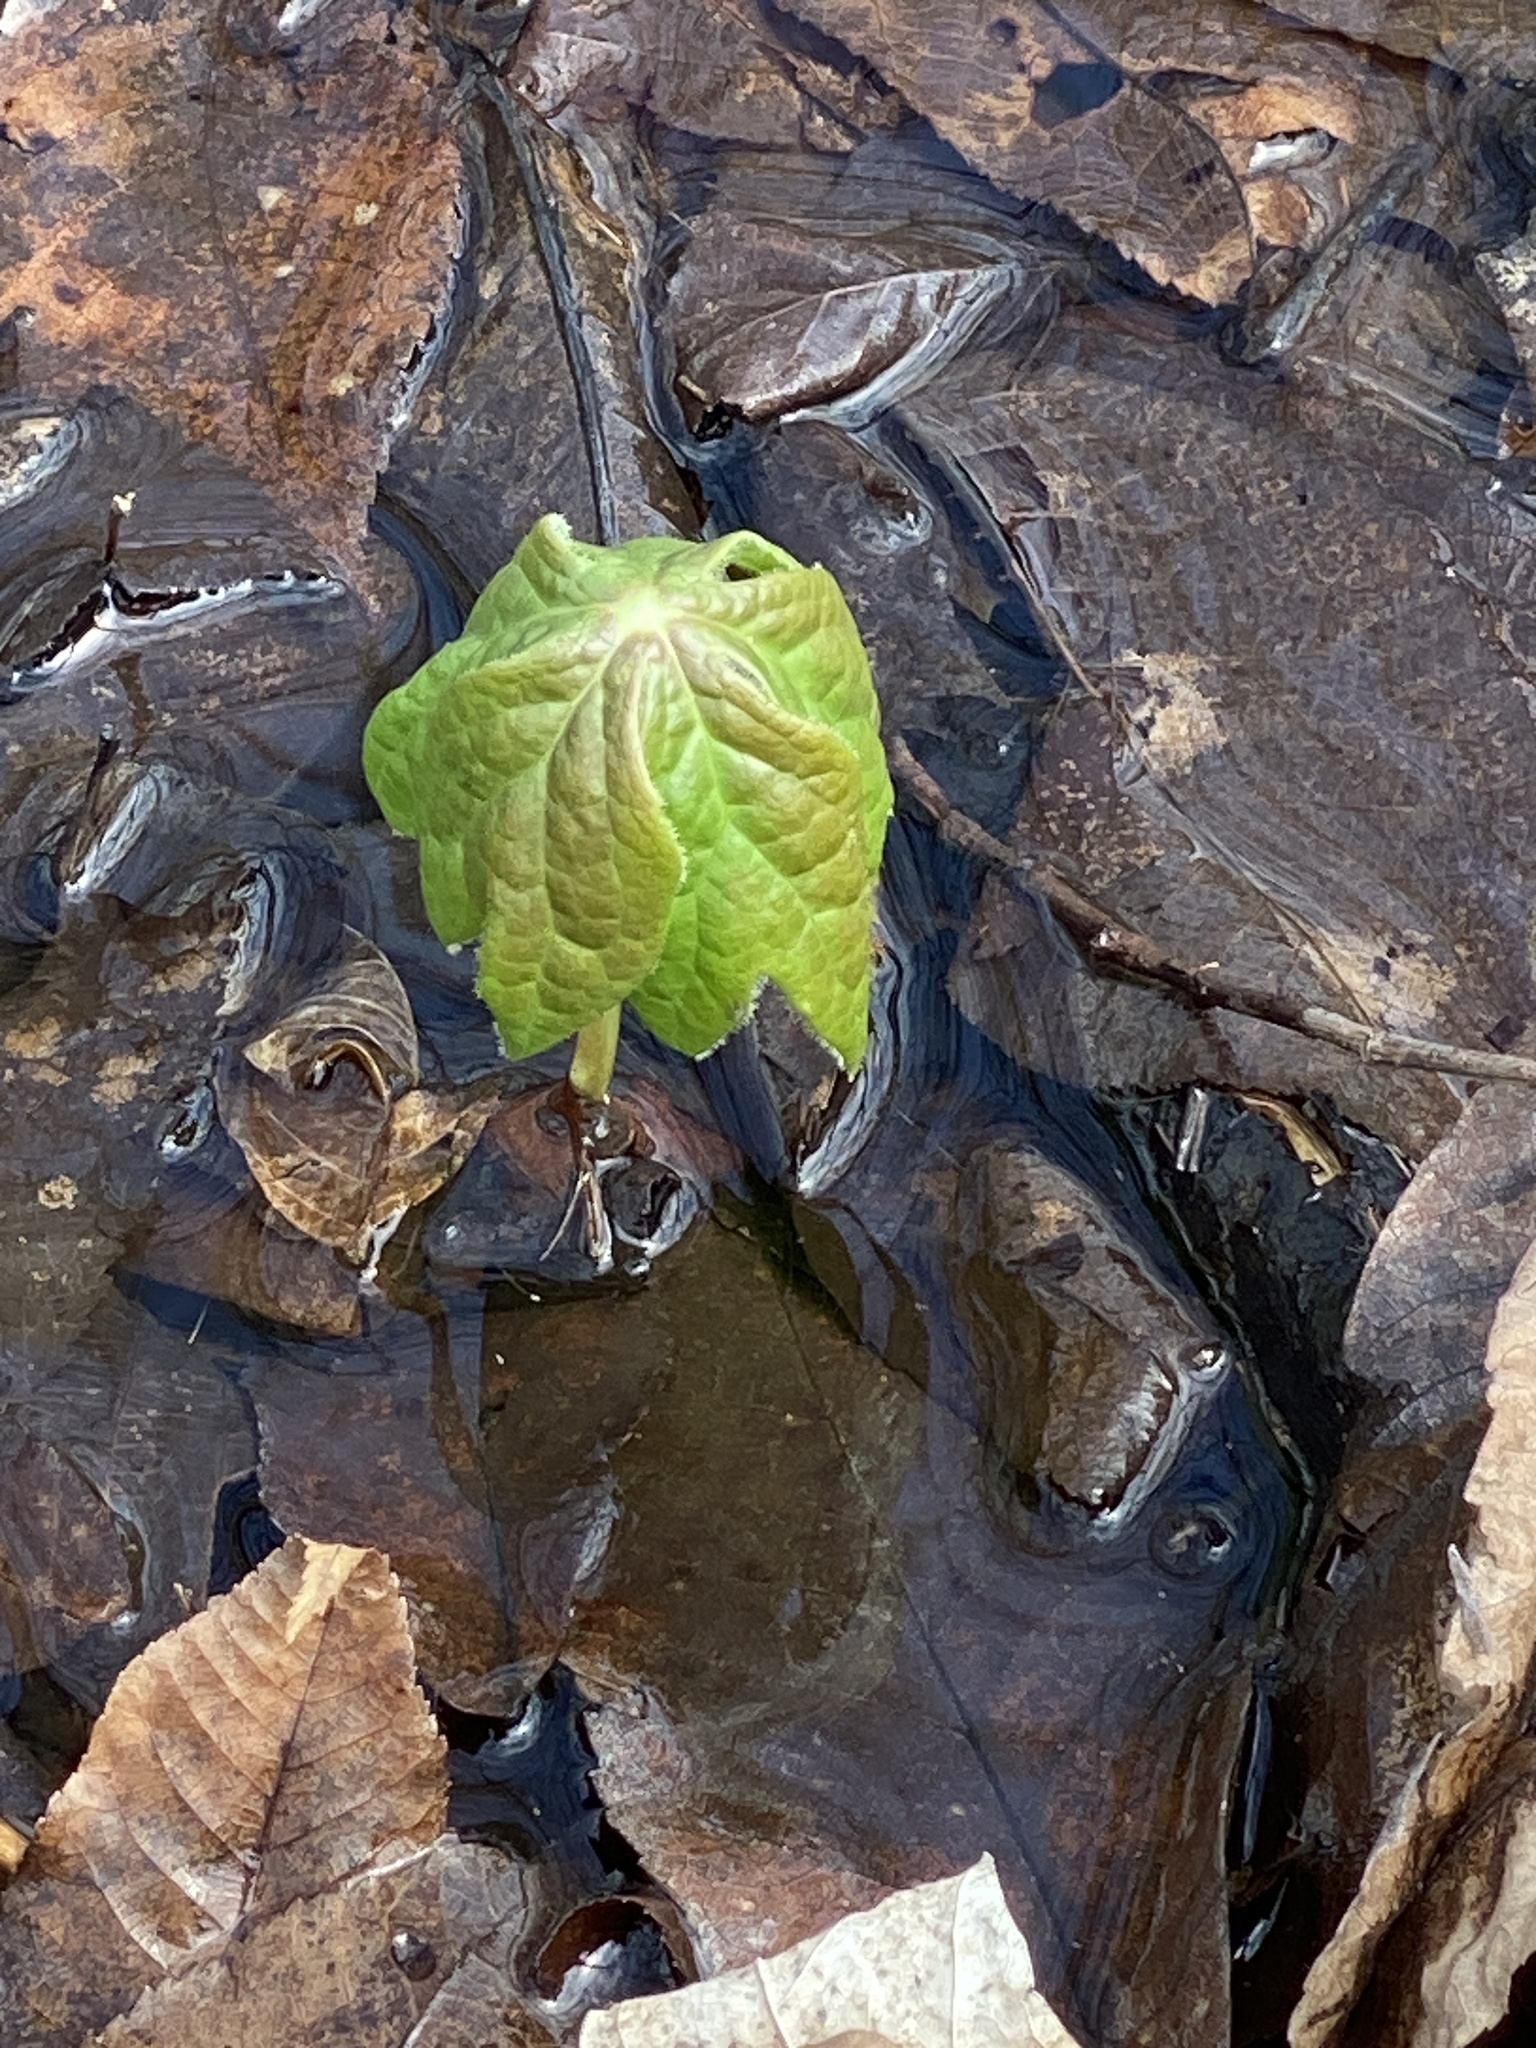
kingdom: Plantae
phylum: Tracheophyta
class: Magnoliopsida
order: Ranunculales
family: Berberidaceae
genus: Podophyllum
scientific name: Podophyllum peltatum
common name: Wild mandrake
